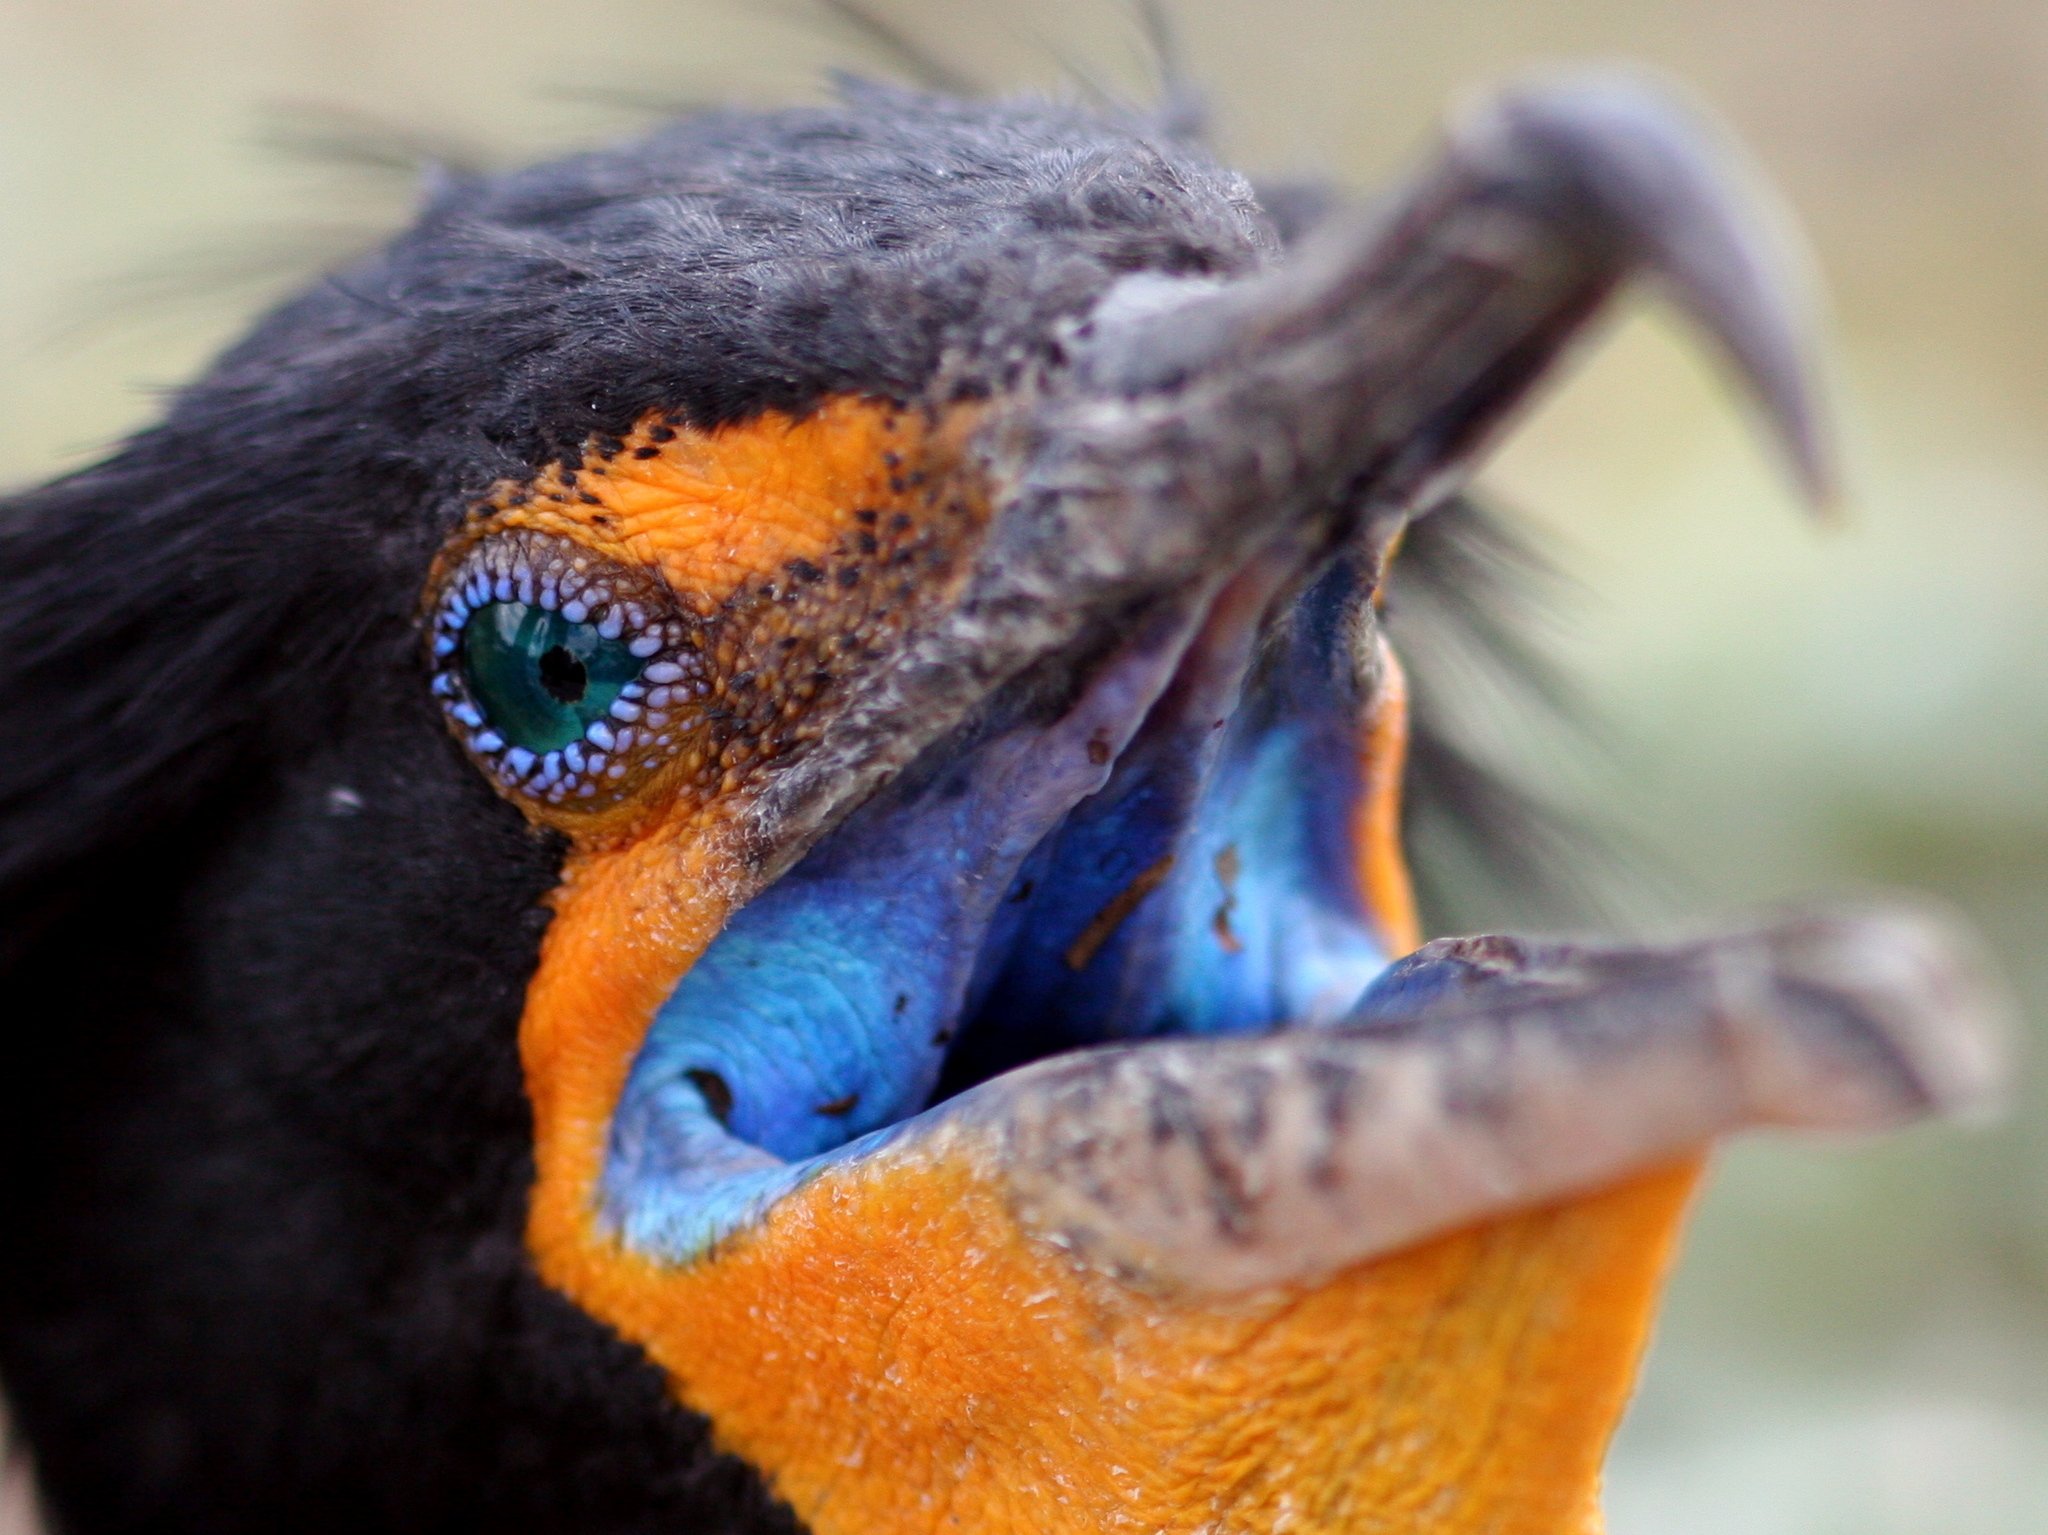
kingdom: Animalia
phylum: Chordata
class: Aves
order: Suliformes
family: Phalacrocoracidae
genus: Phalacrocorax
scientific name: Phalacrocorax auritus
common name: Double-crested cormorant
